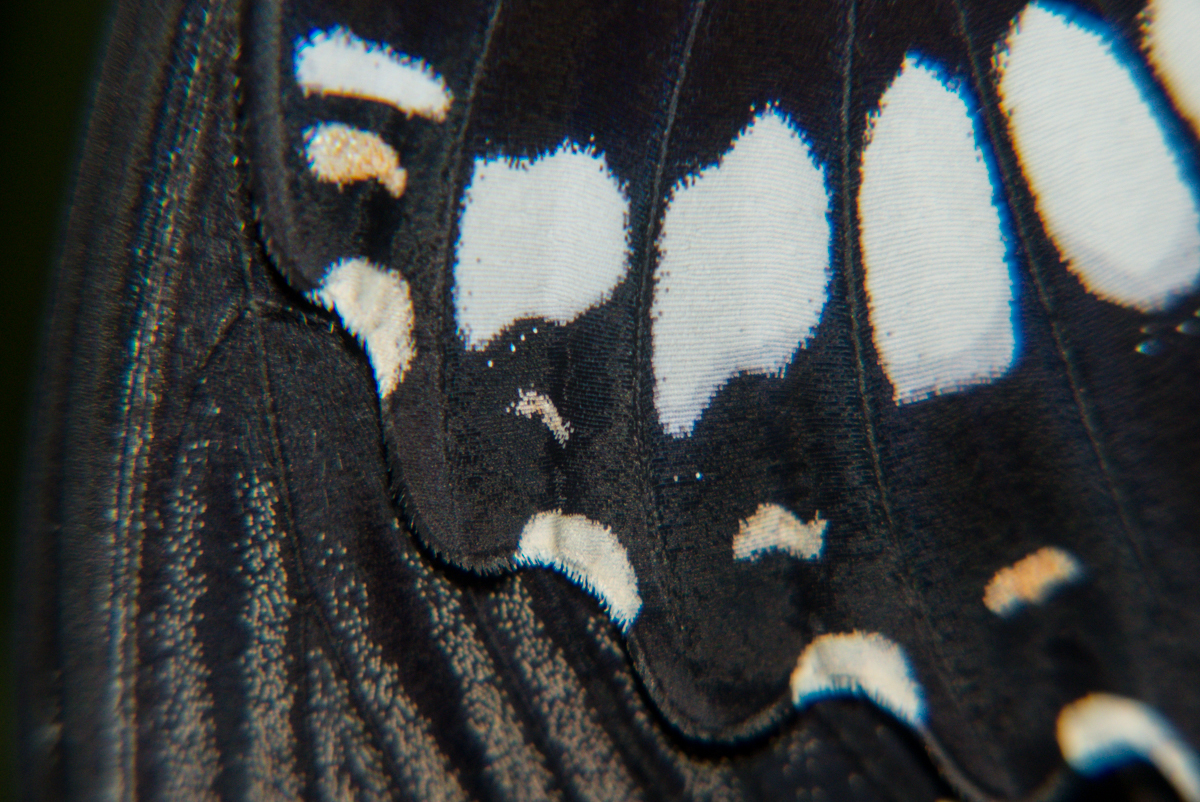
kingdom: Animalia
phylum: Arthropoda
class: Insecta
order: Lepidoptera
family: Papilionidae
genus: Papilio
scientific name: Papilio polytes
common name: Common mormon
